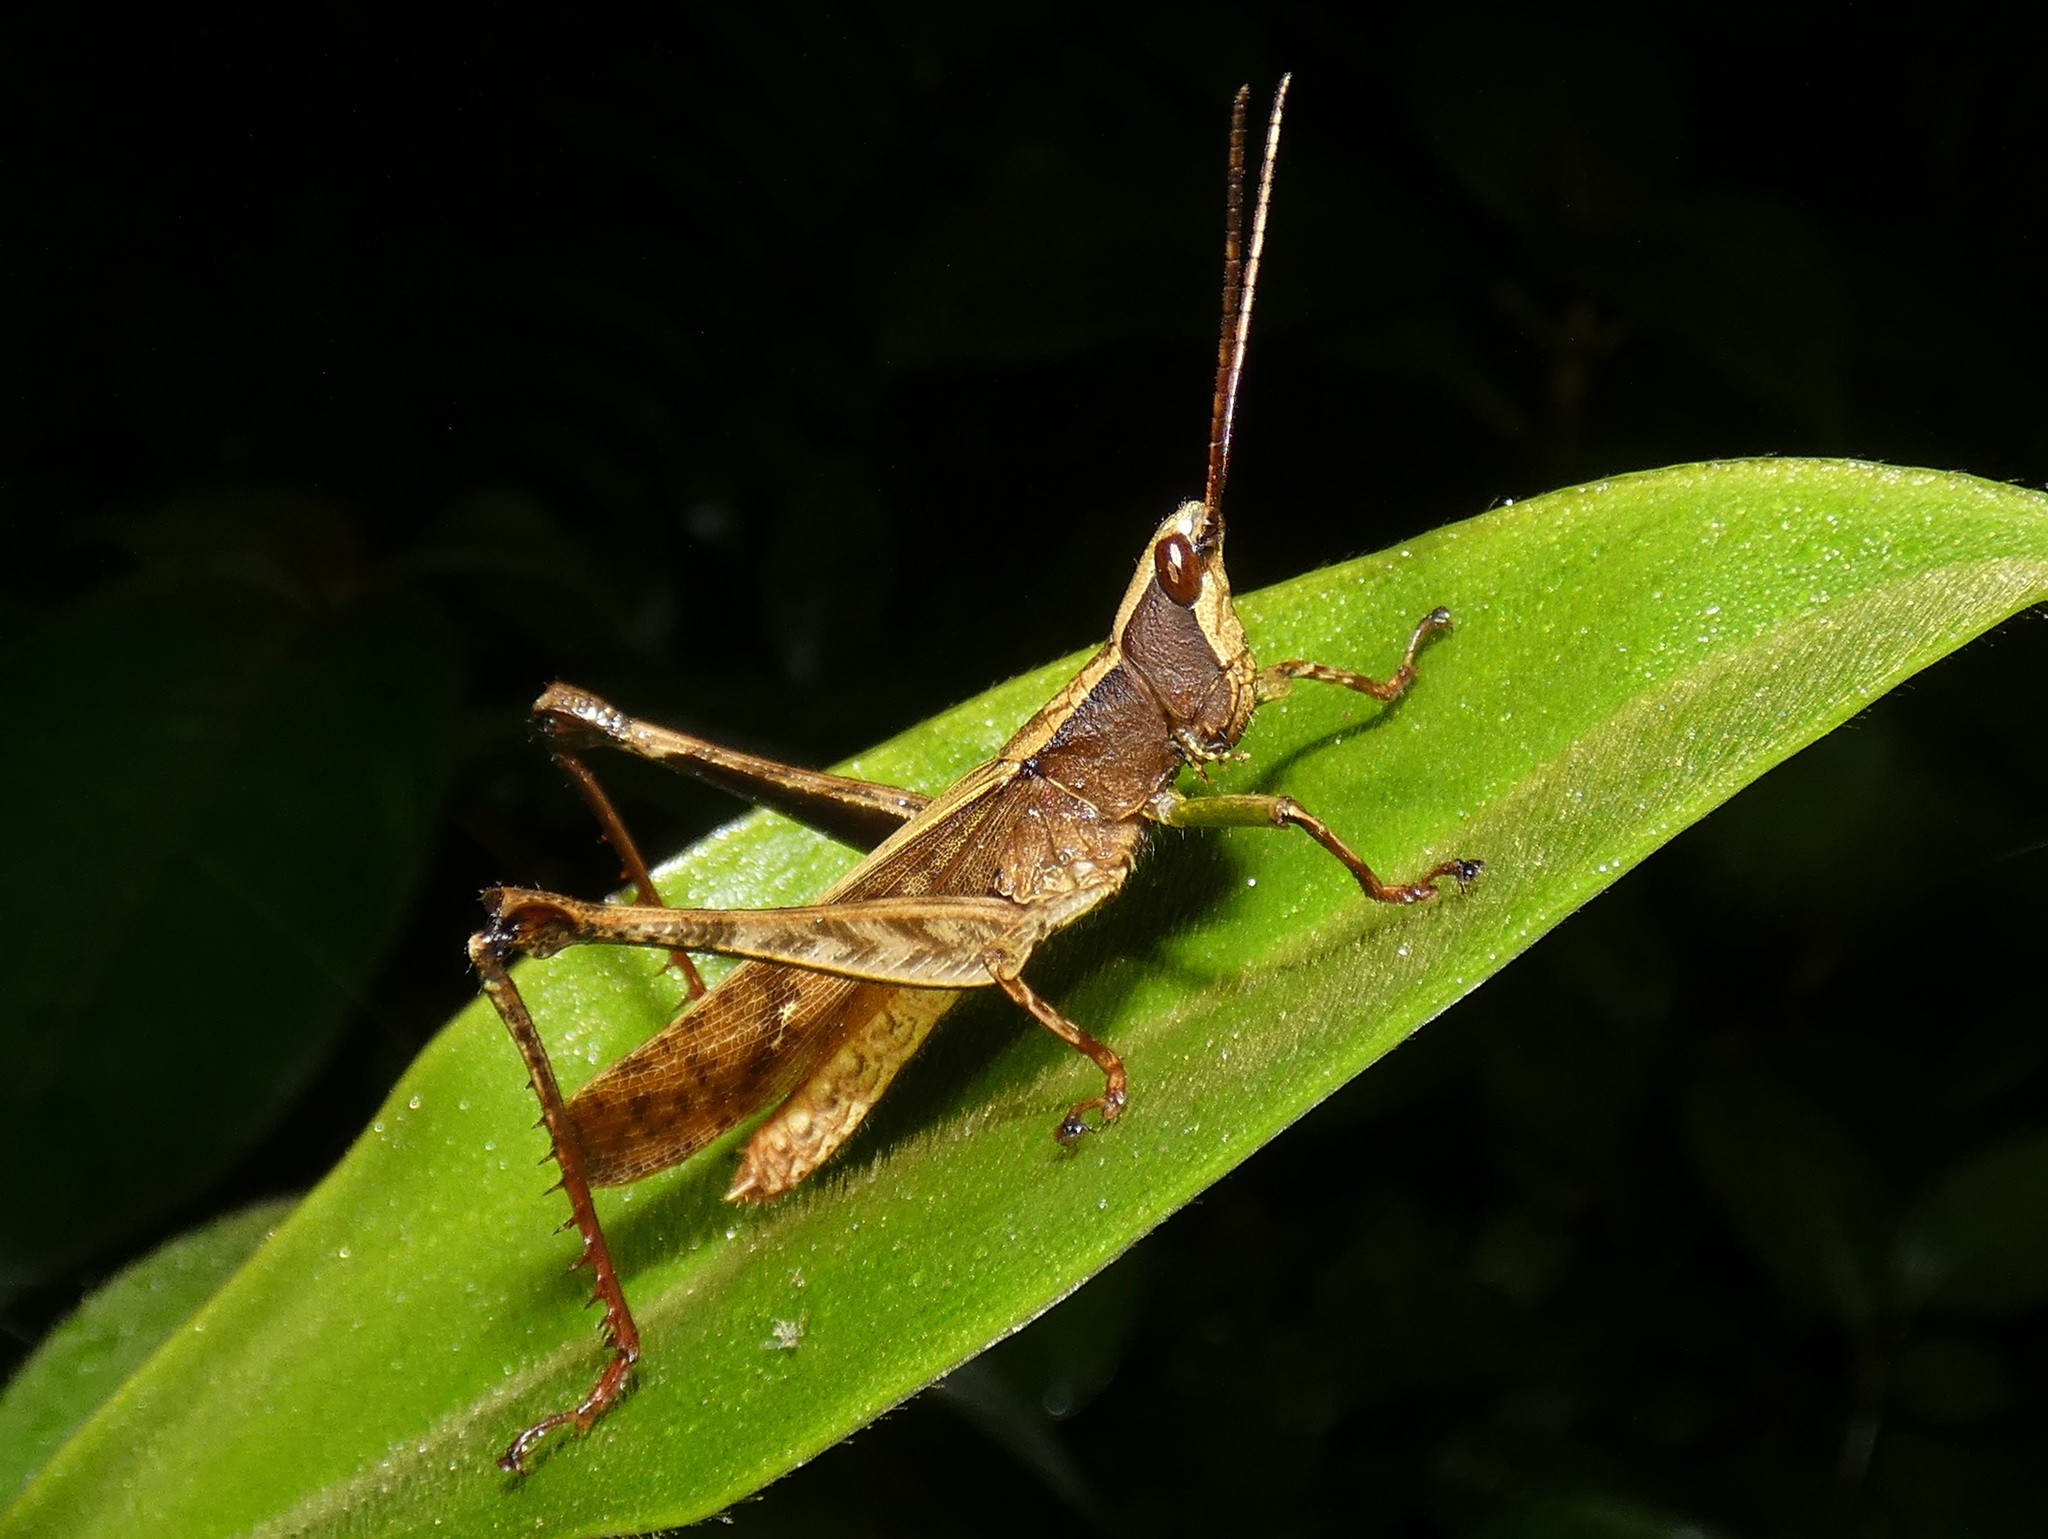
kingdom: Animalia
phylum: Arthropoda
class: Insecta
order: Orthoptera
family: Romaleidae
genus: Phaeoparia
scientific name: Phaeoparia depressicornis
